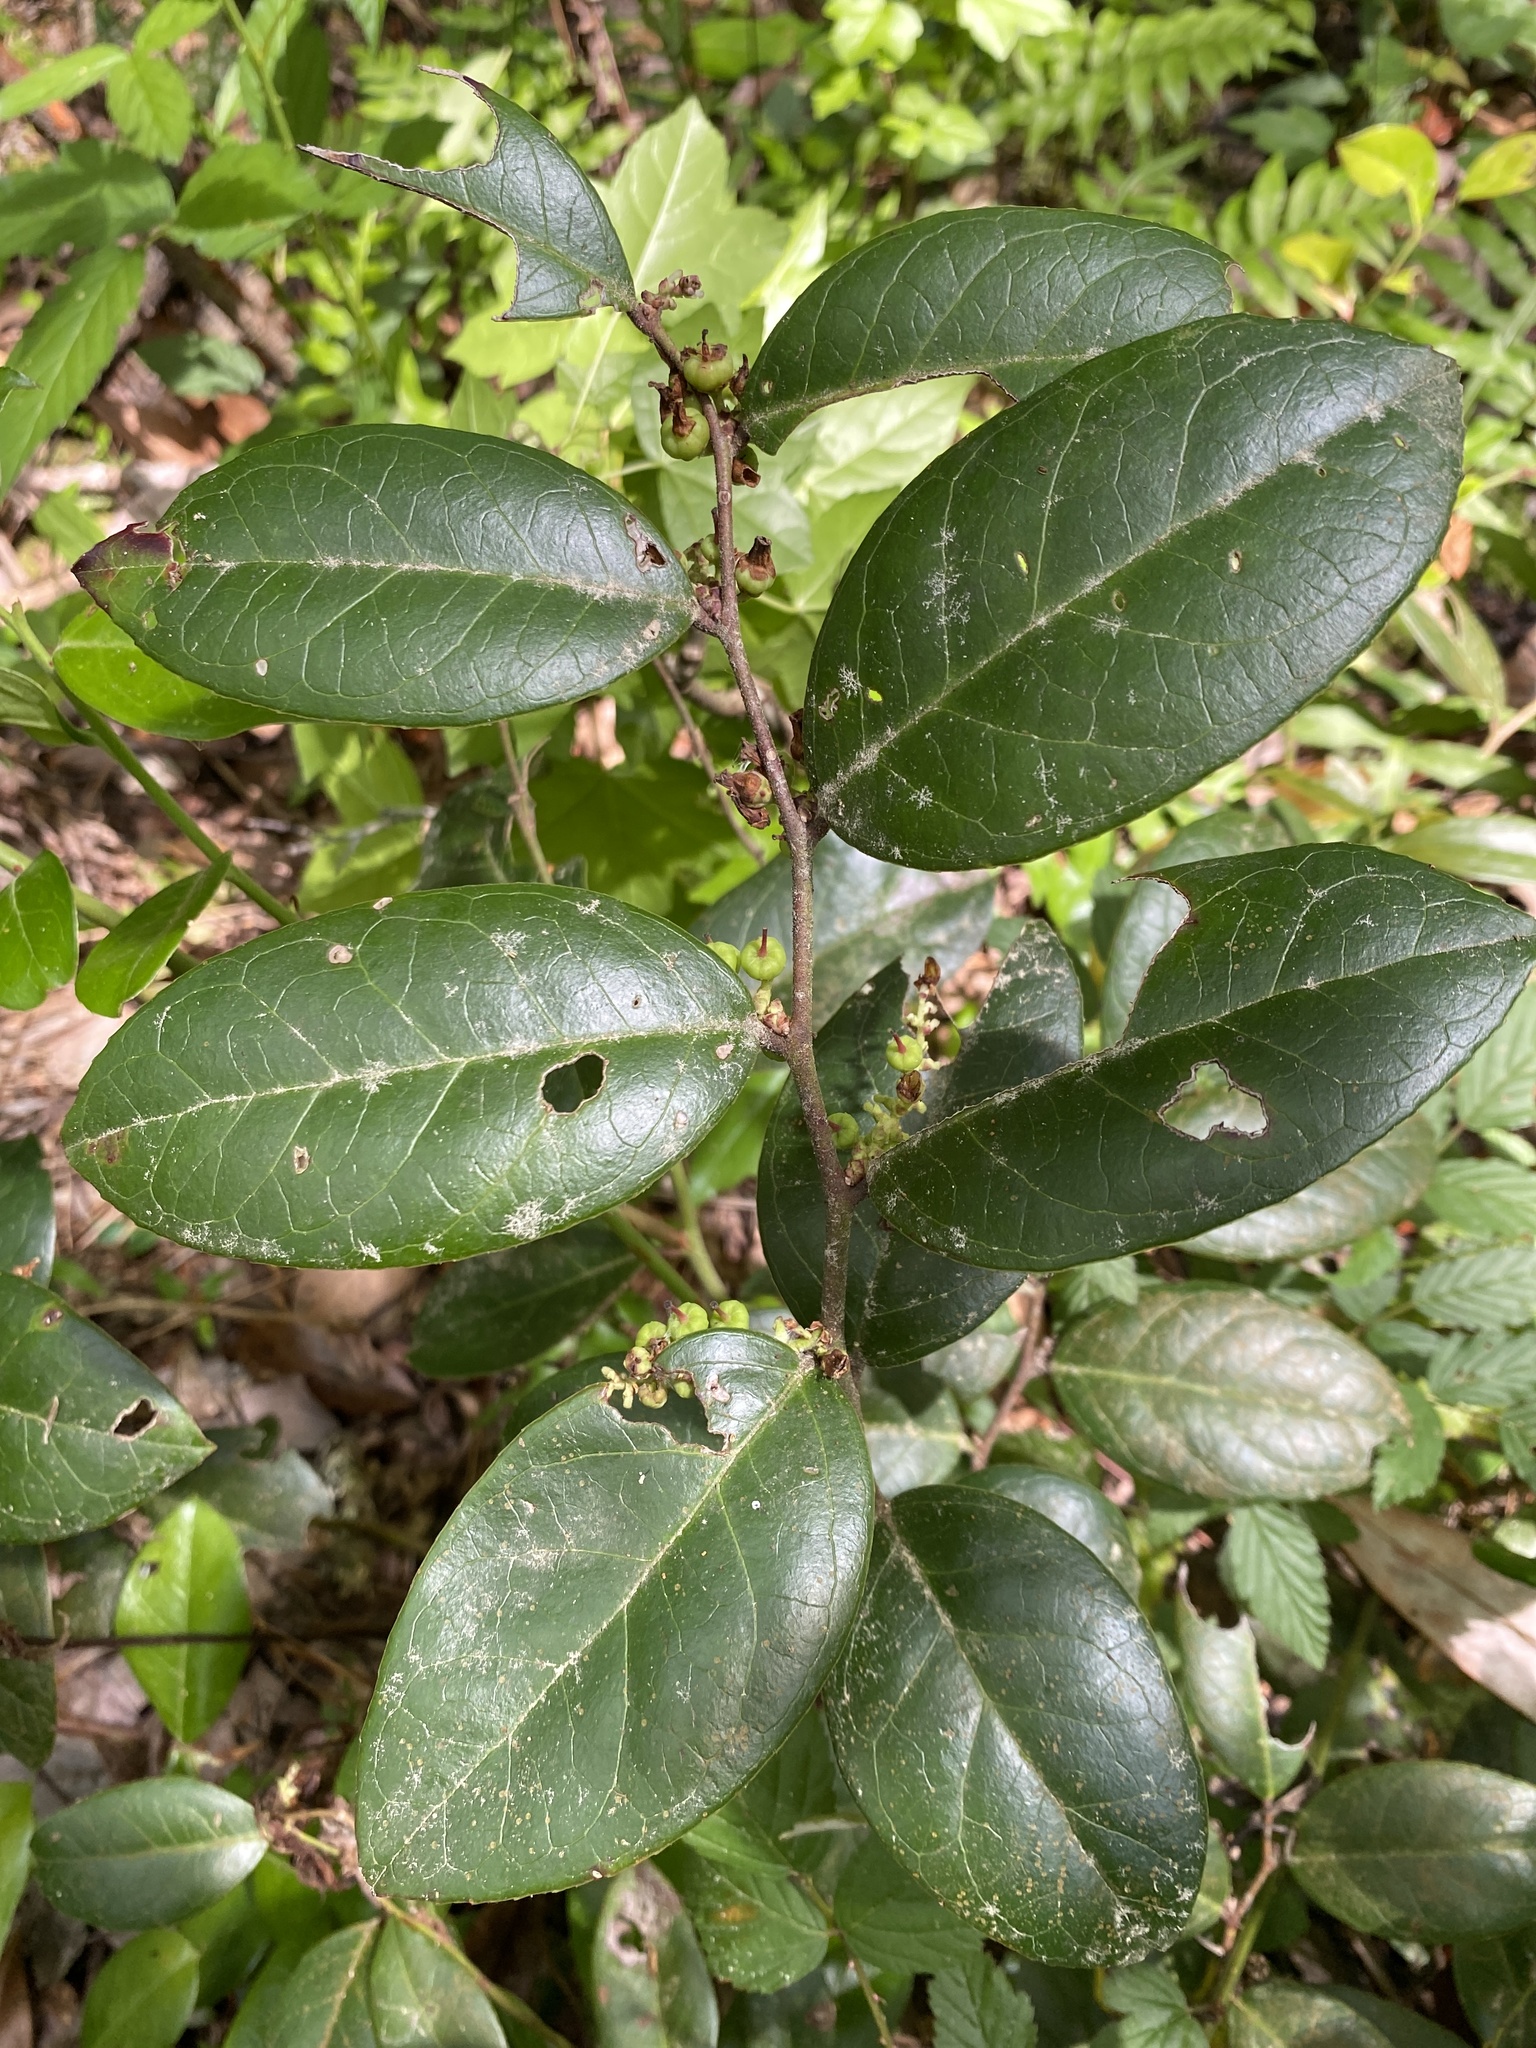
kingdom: Plantae
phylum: Tracheophyta
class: Magnoliopsida
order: Ericales
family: Ericaceae
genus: Leucothoe
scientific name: Leucothoe axillaris
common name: Leucothoe
